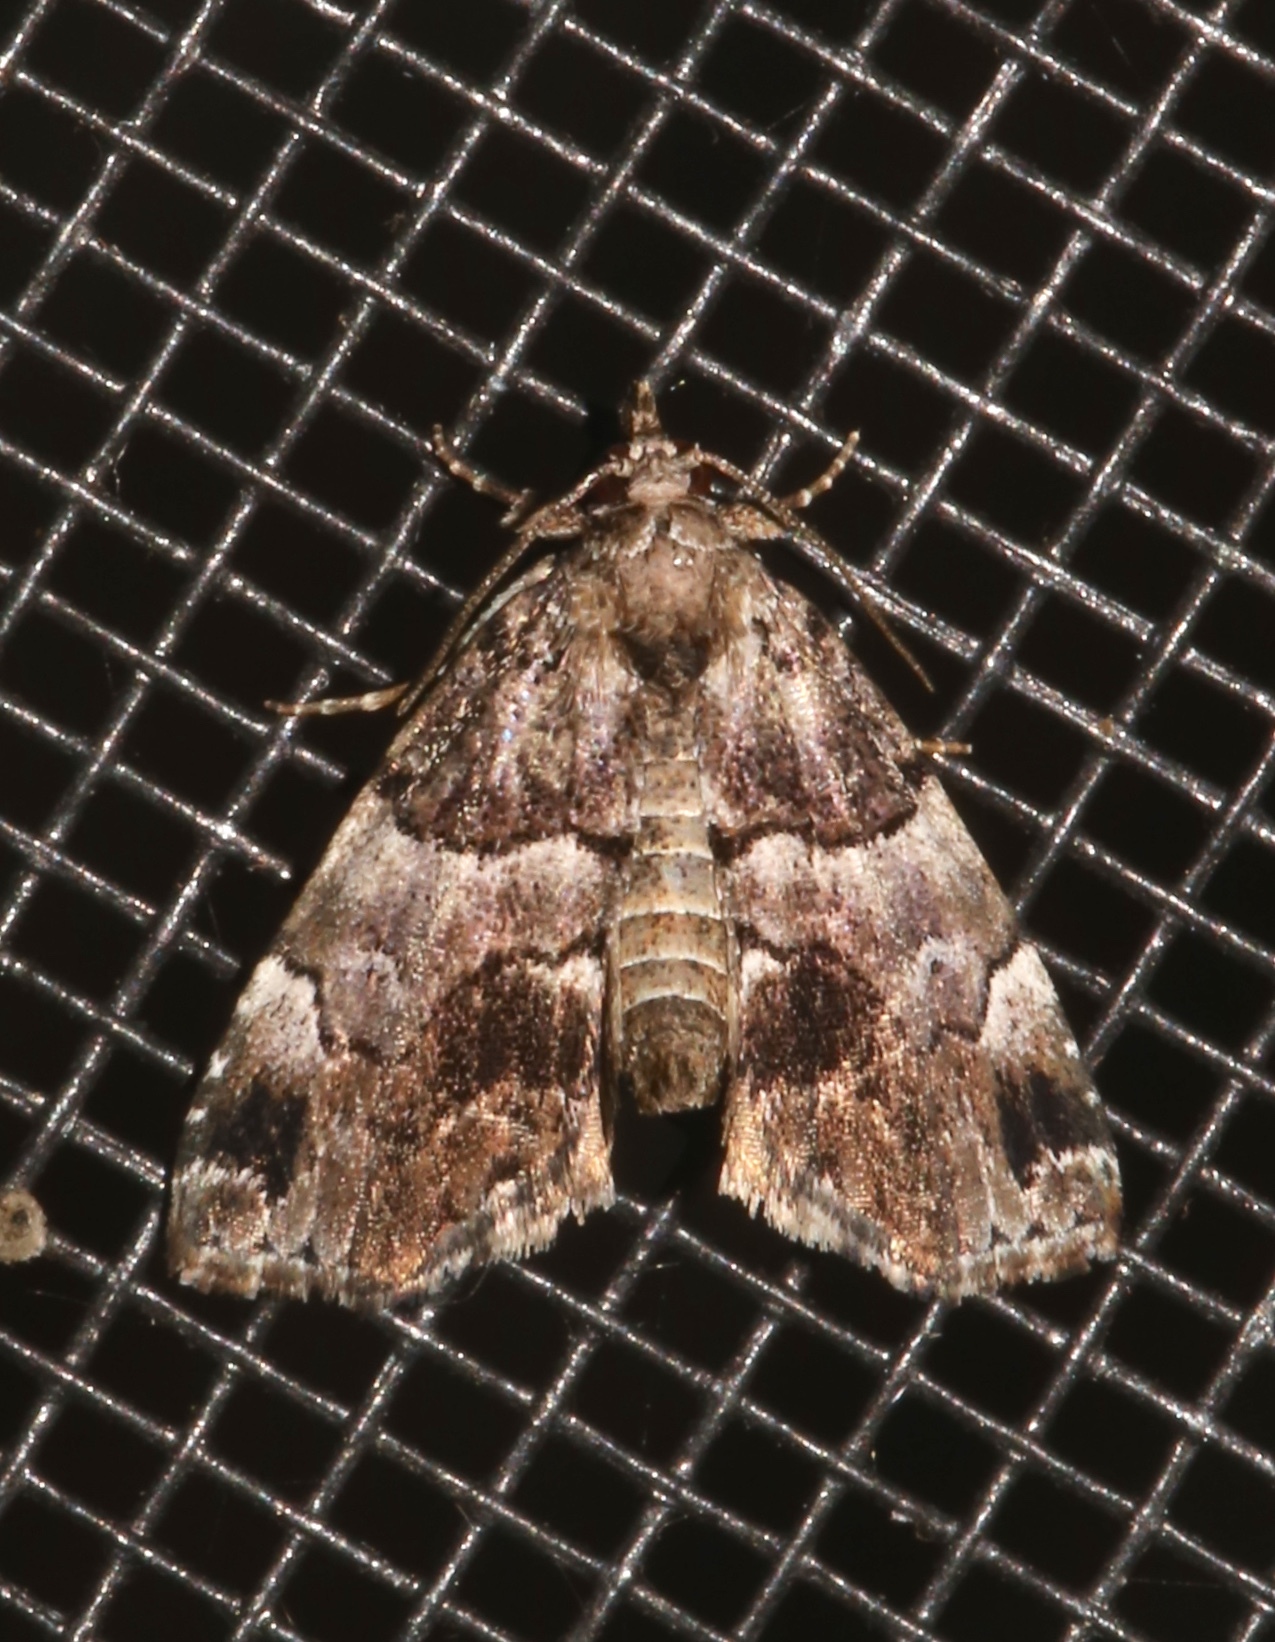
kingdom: Animalia
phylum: Arthropoda
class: Insecta
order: Lepidoptera
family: Erebidae
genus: Cutina
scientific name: Cutina distincta
